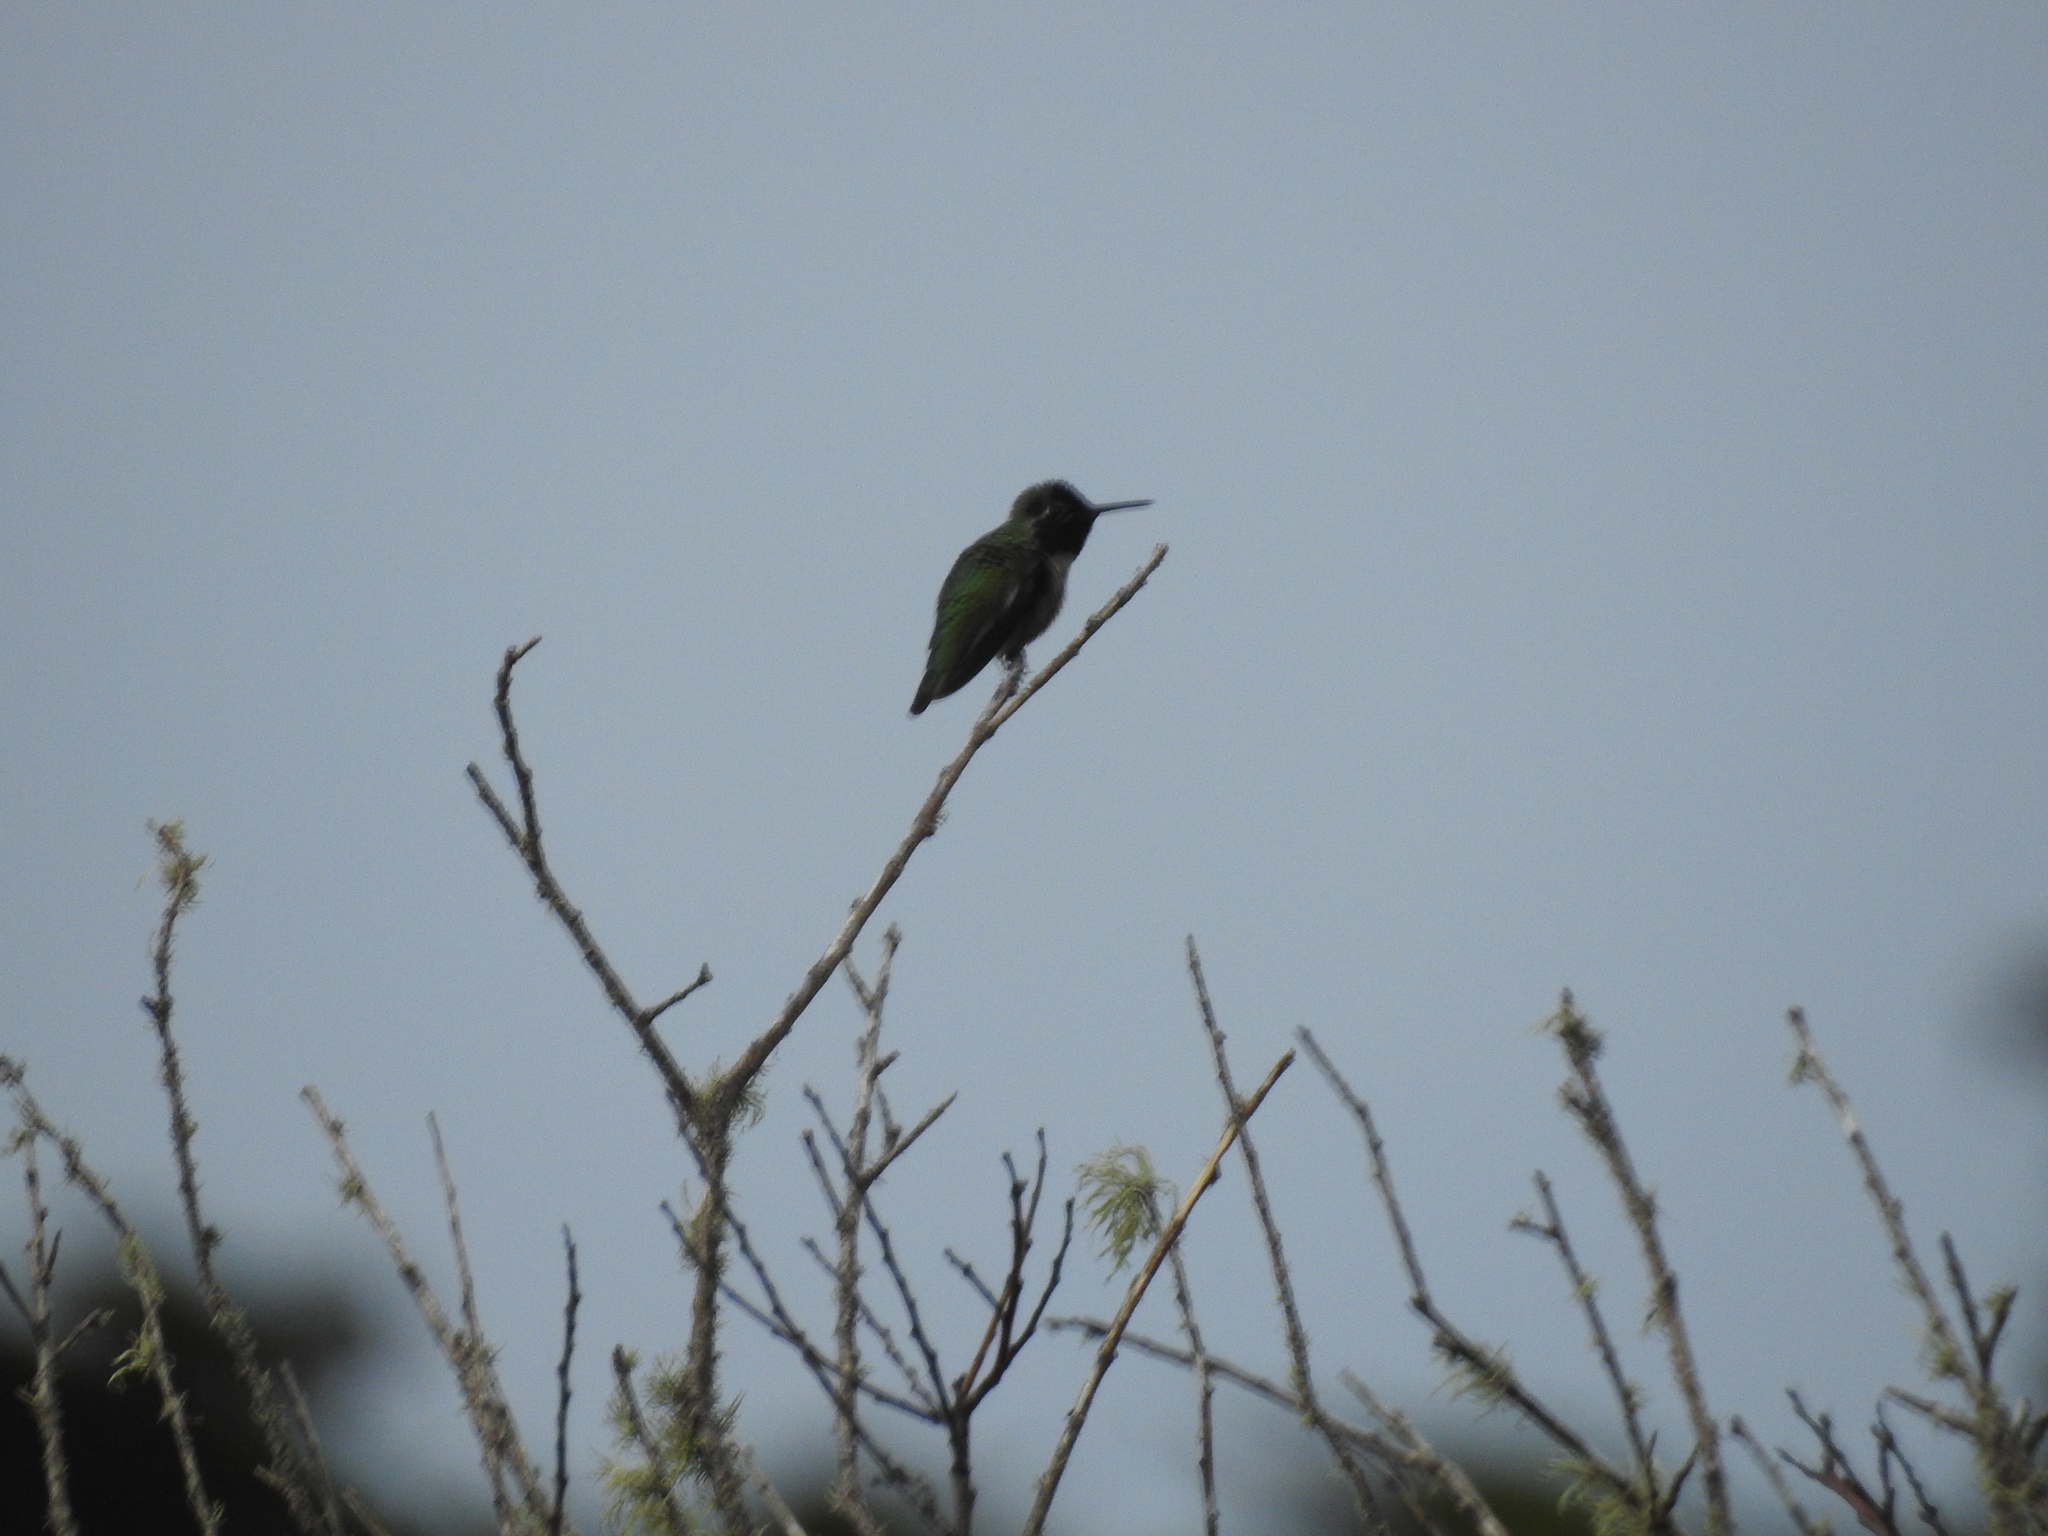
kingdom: Animalia
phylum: Chordata
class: Aves
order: Apodiformes
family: Trochilidae
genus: Calypte
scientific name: Calypte anna
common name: Anna's hummingbird
